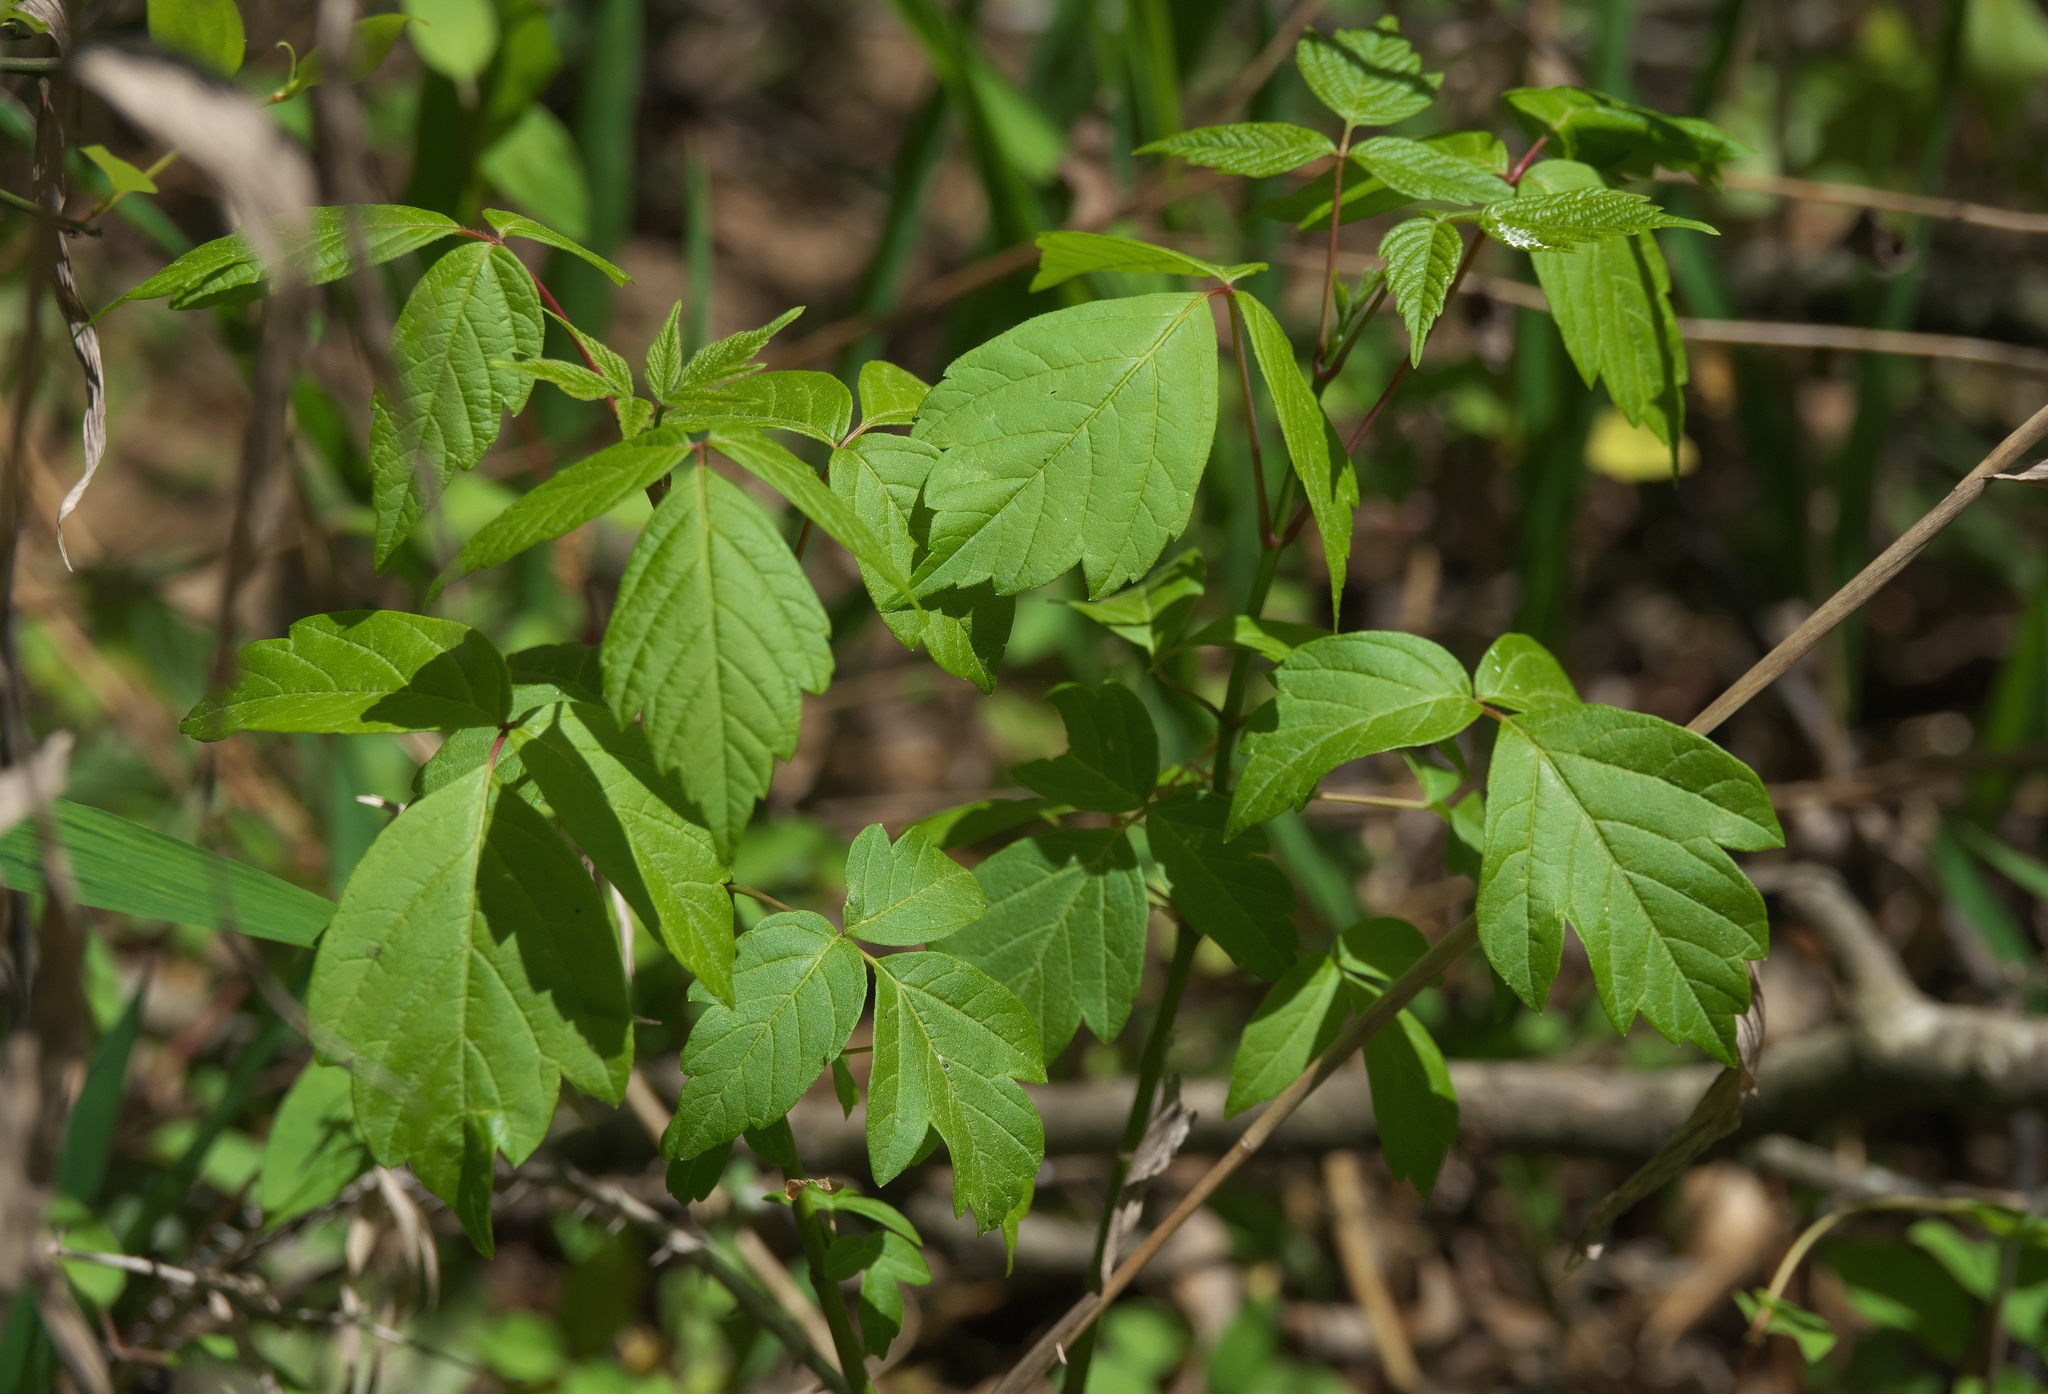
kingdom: Plantae
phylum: Tracheophyta
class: Magnoliopsida
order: Sapindales
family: Sapindaceae
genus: Acer
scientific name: Acer negundo
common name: Ashleaf maple
